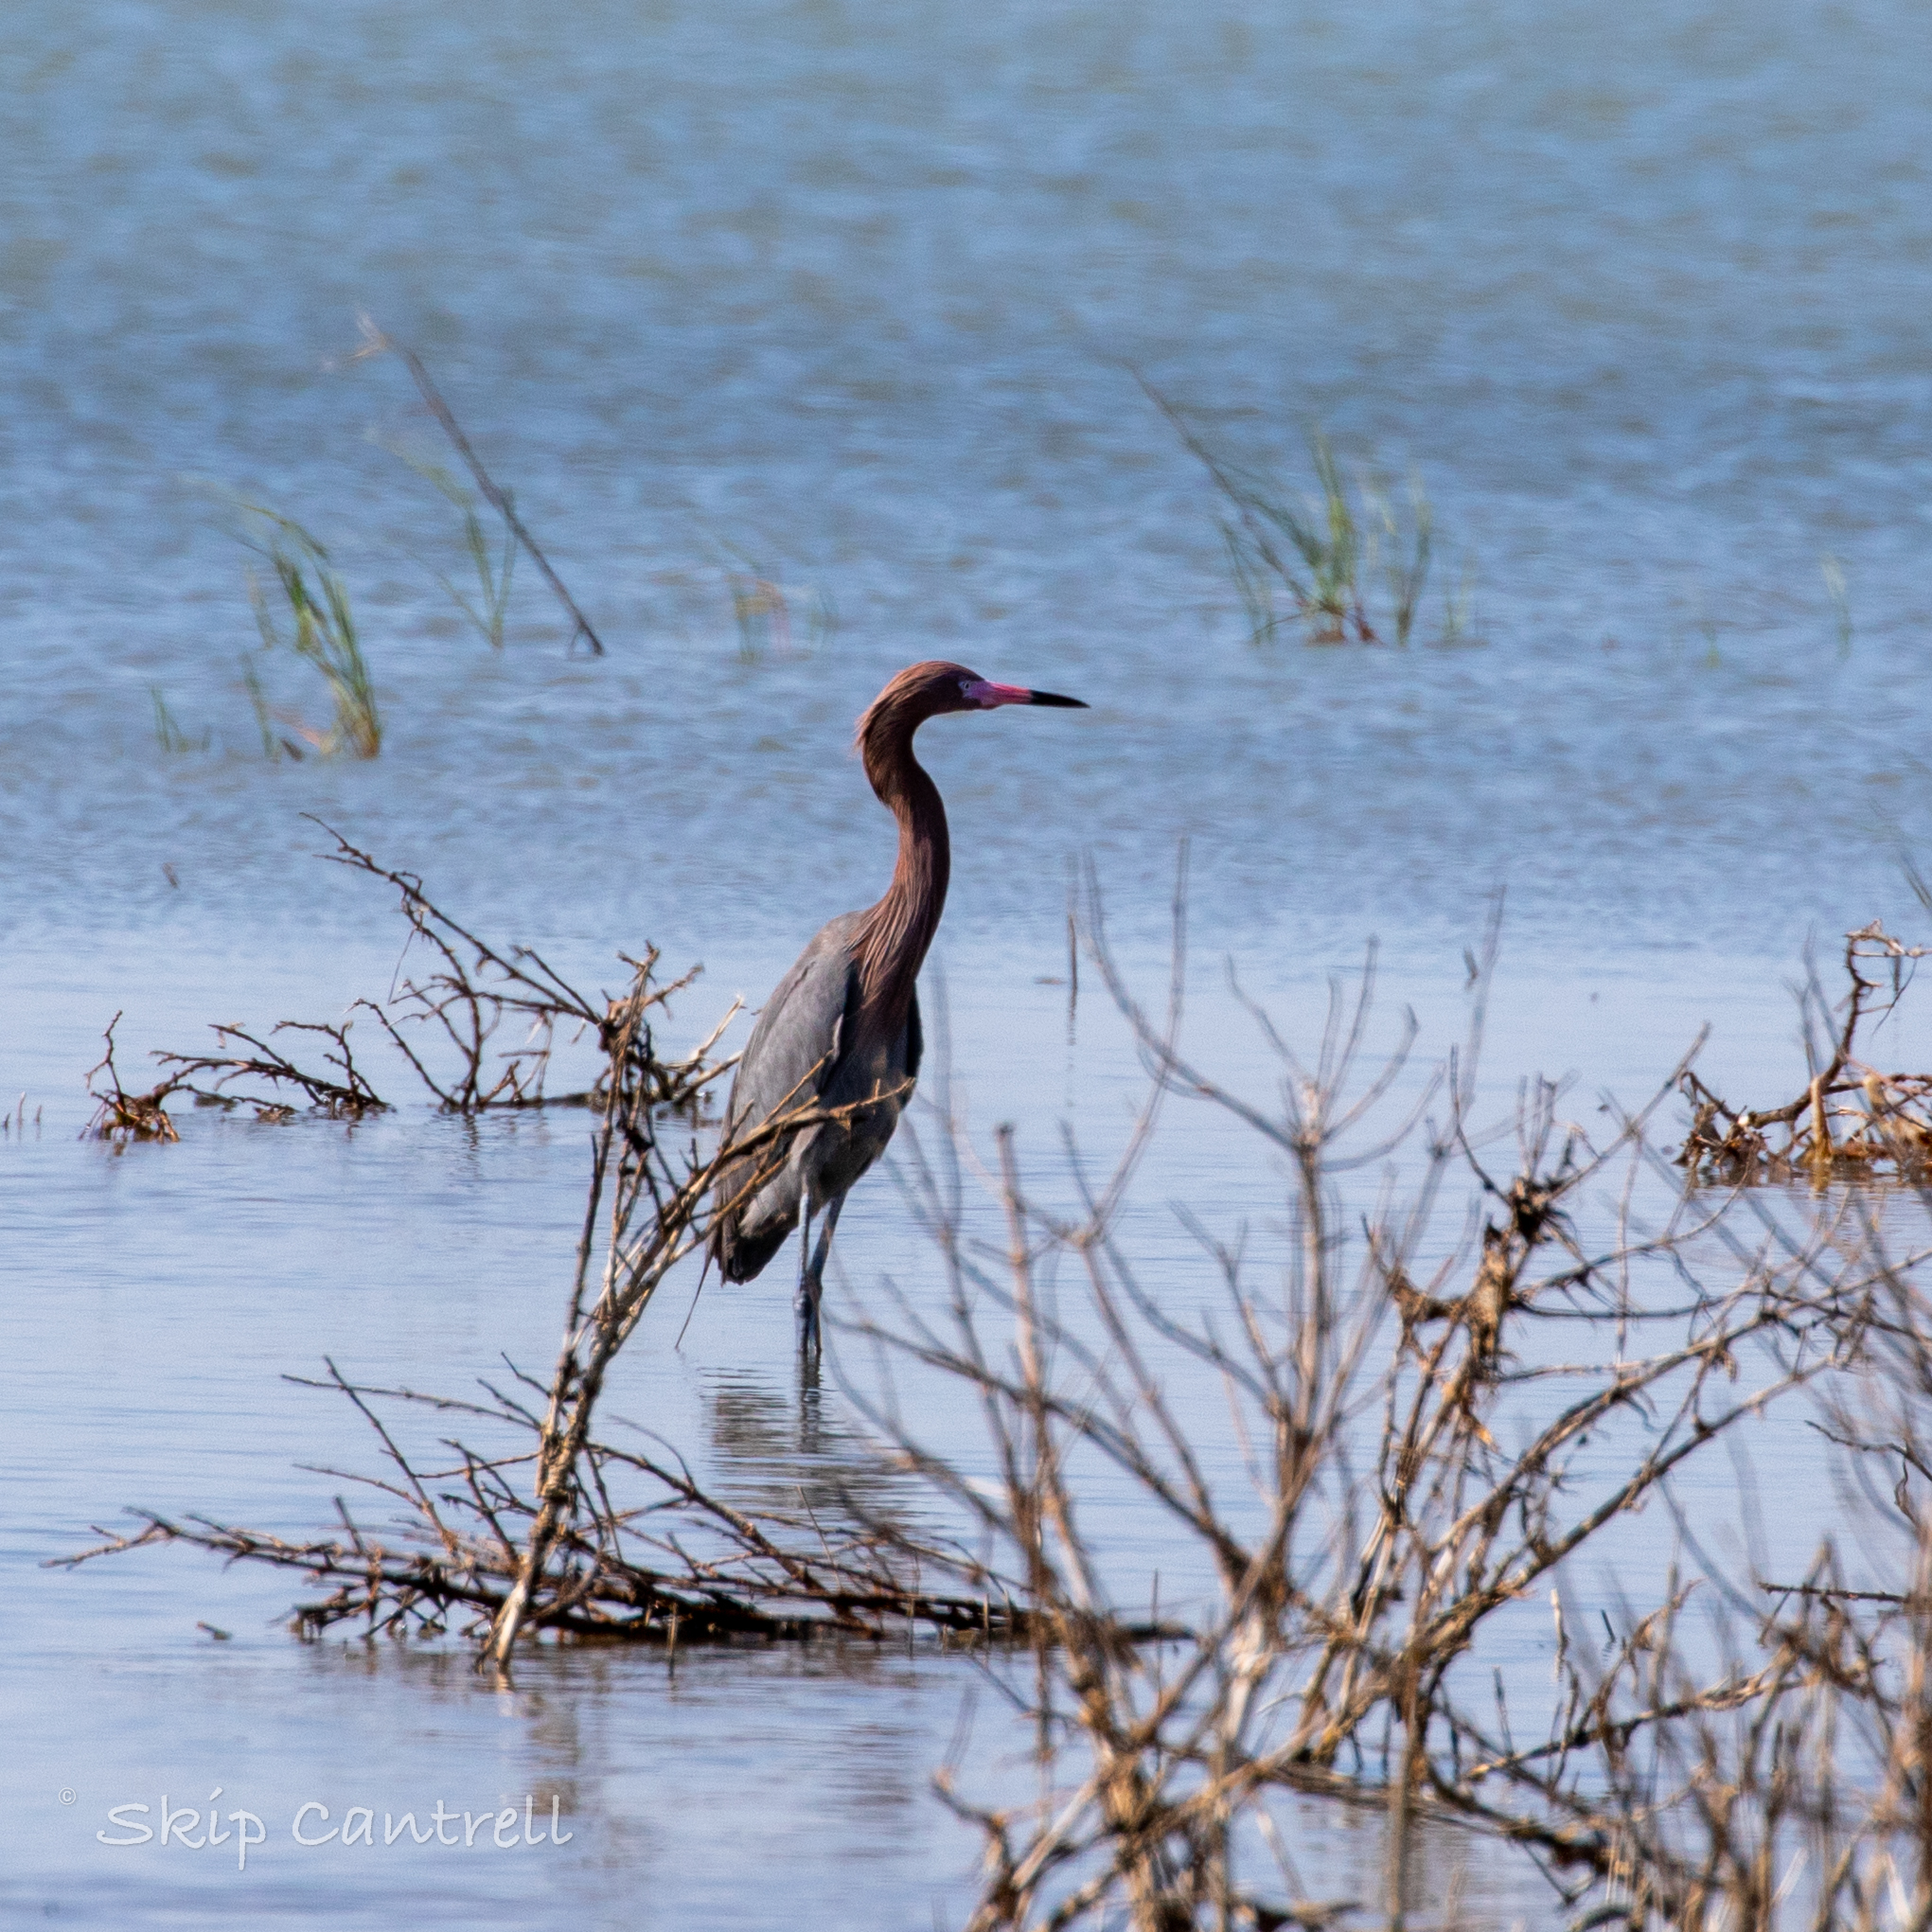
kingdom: Animalia
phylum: Chordata
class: Aves
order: Pelecaniformes
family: Ardeidae
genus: Egretta
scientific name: Egretta rufescens
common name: Reddish egret
